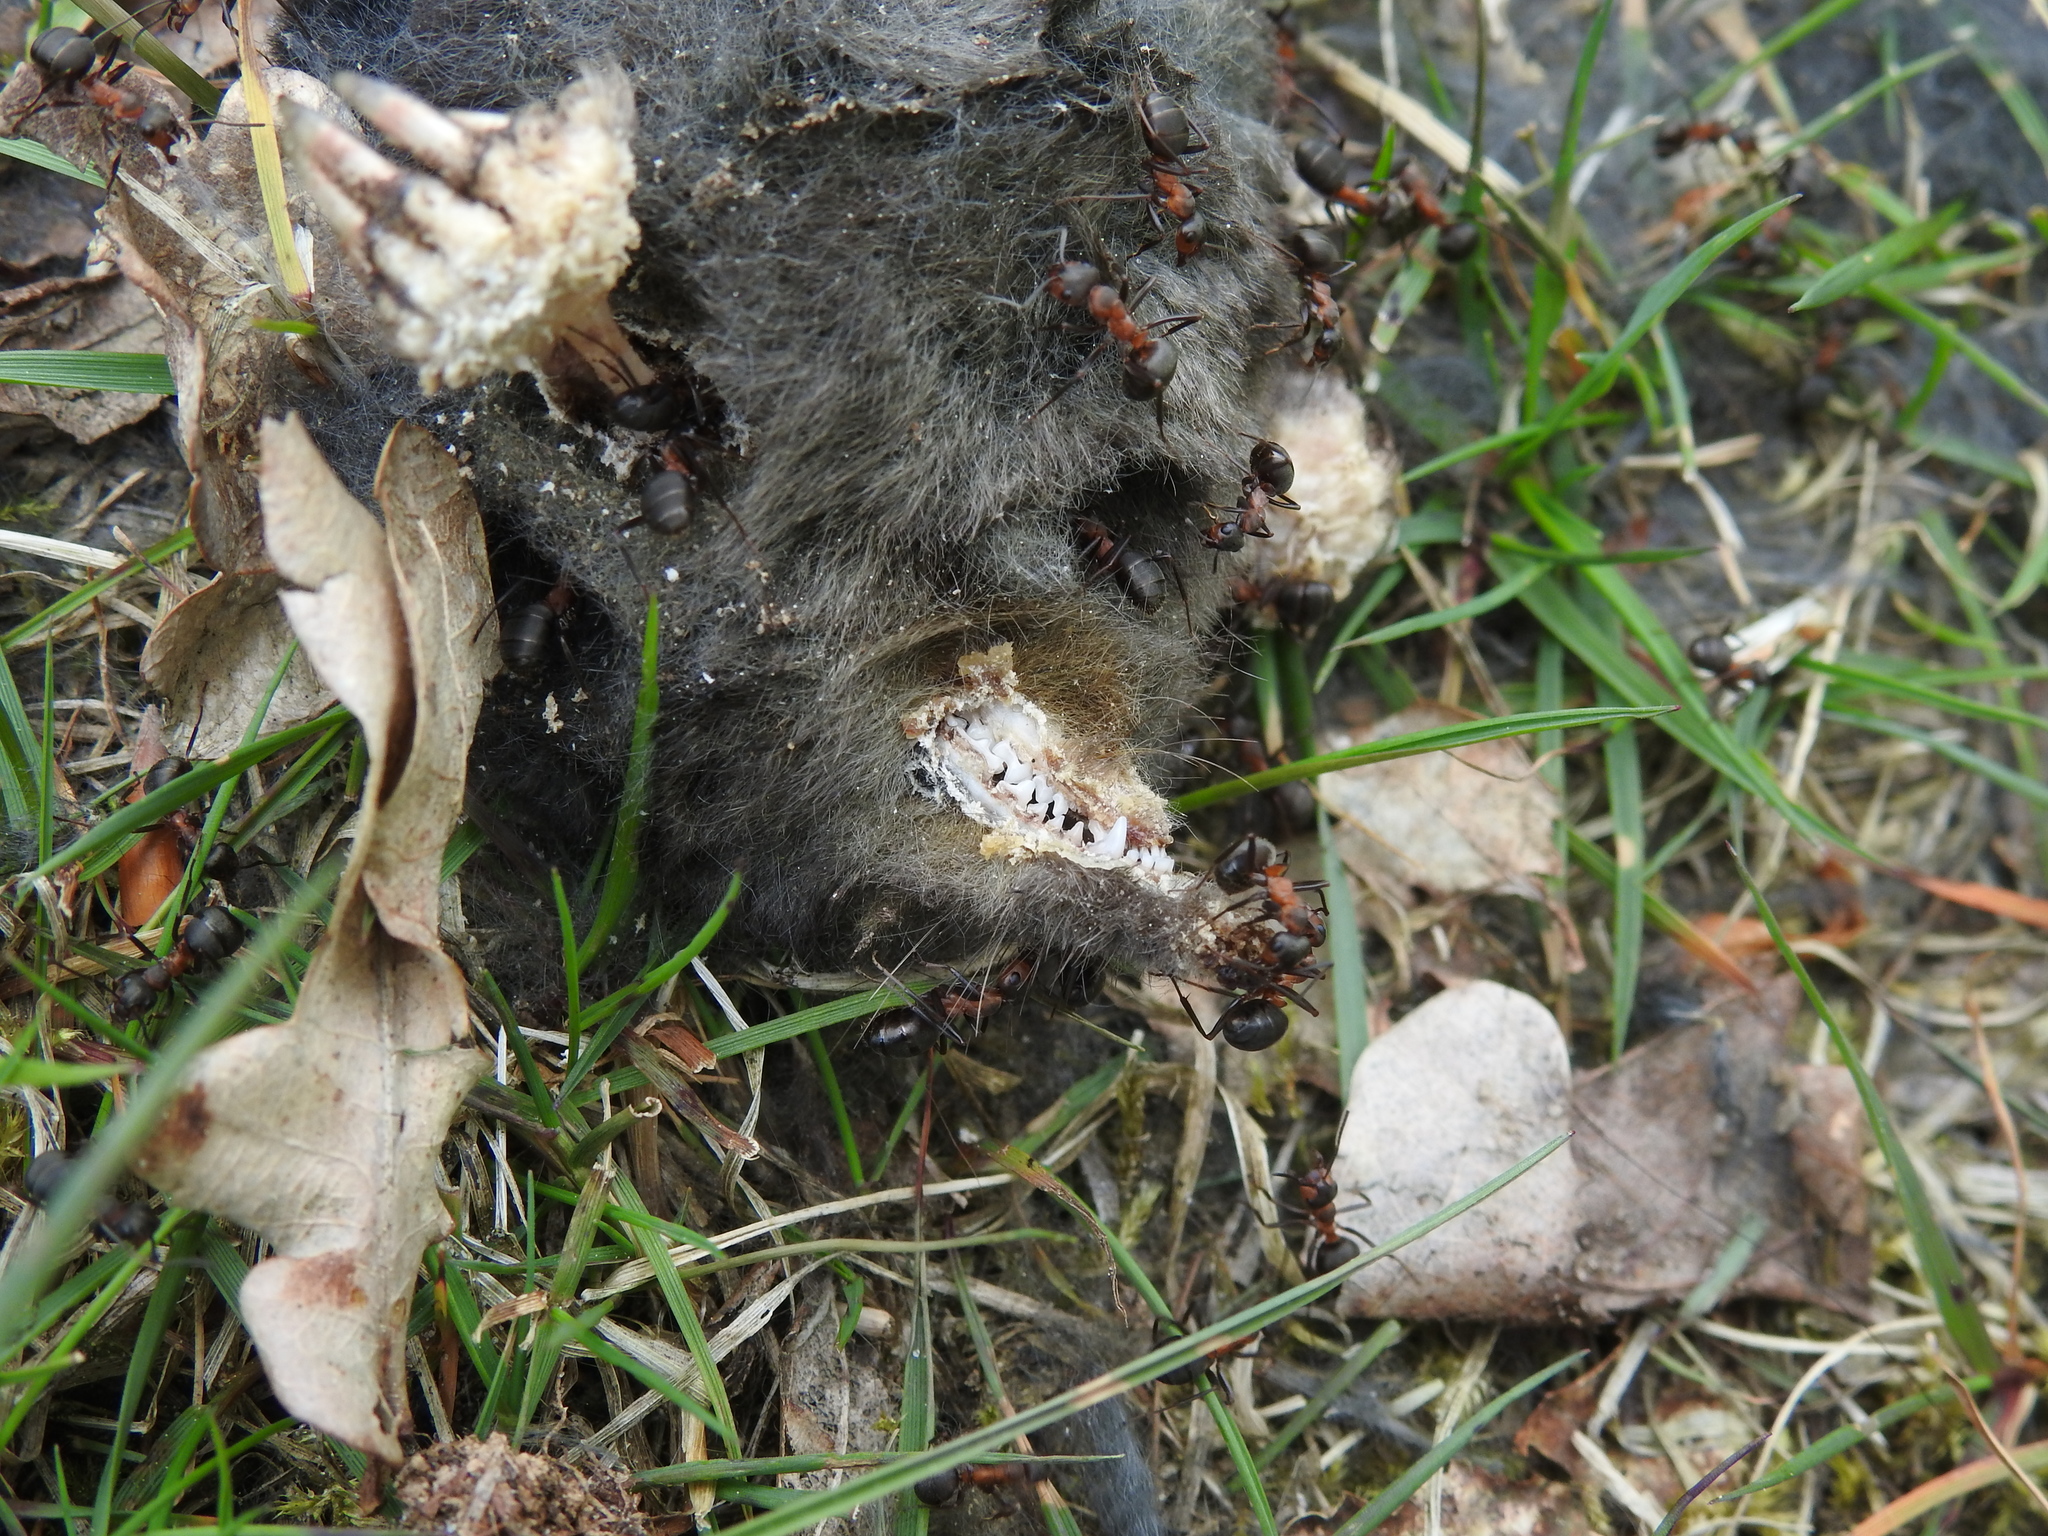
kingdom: Animalia
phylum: Chordata
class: Mammalia
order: Soricomorpha
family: Talpidae
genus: Talpa
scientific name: Talpa europaea
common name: European mole
